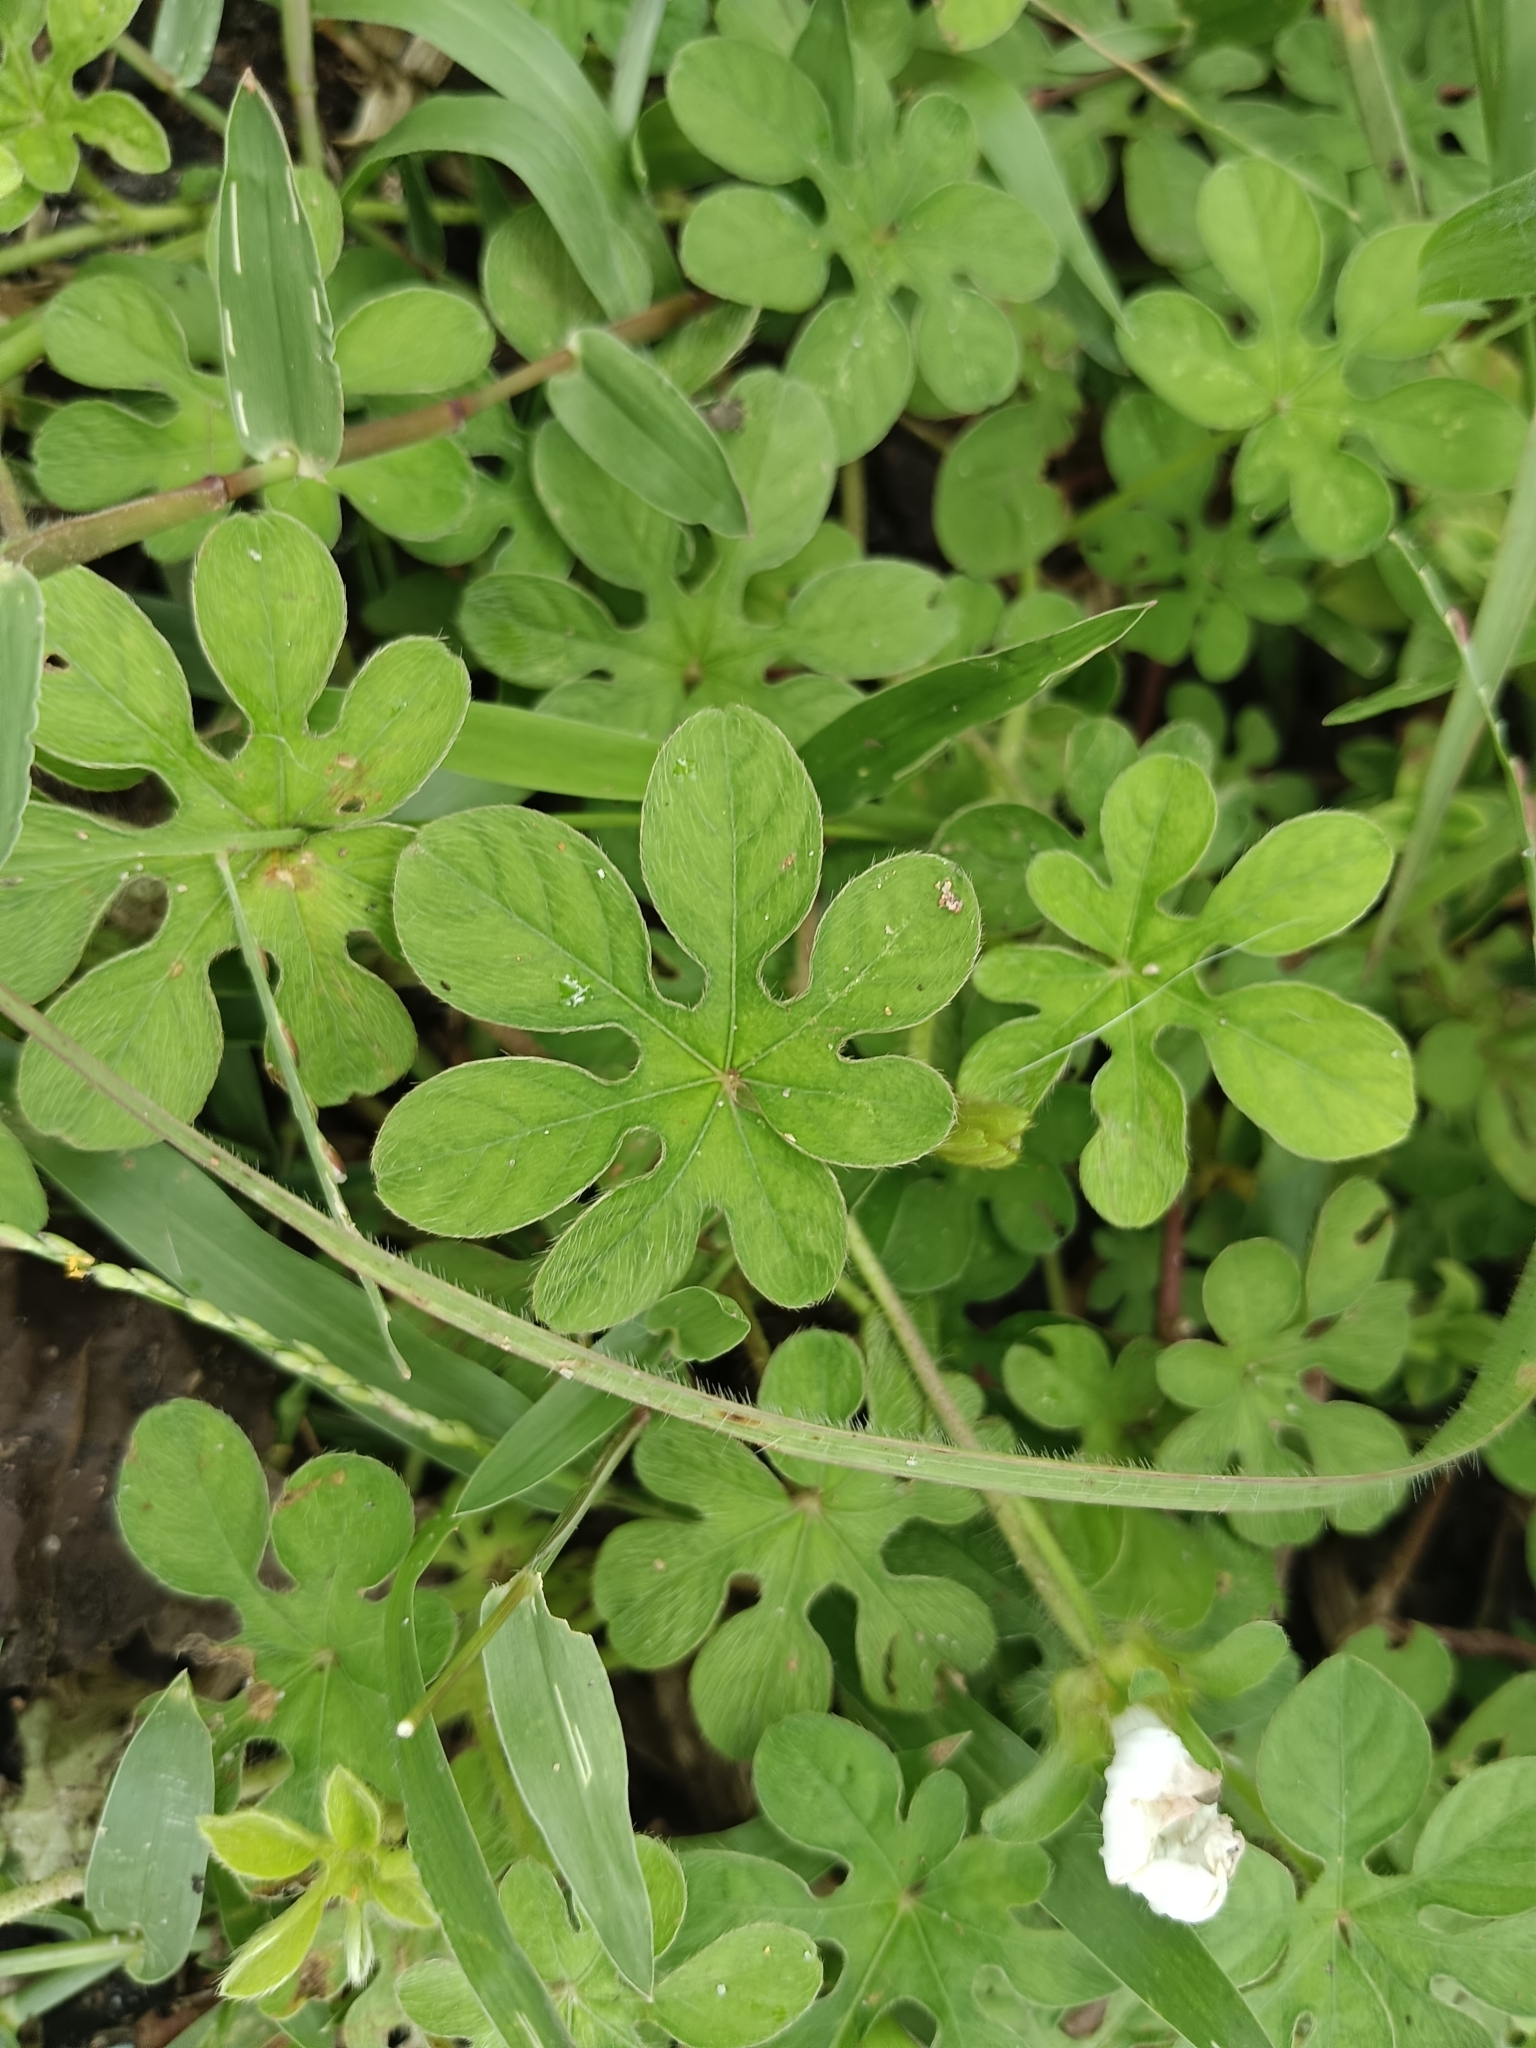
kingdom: Plantae
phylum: Tracheophyta
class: Magnoliopsida
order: Solanales
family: Convolvulaceae
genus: Ipomoea
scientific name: Ipomoea pes-tigridis
